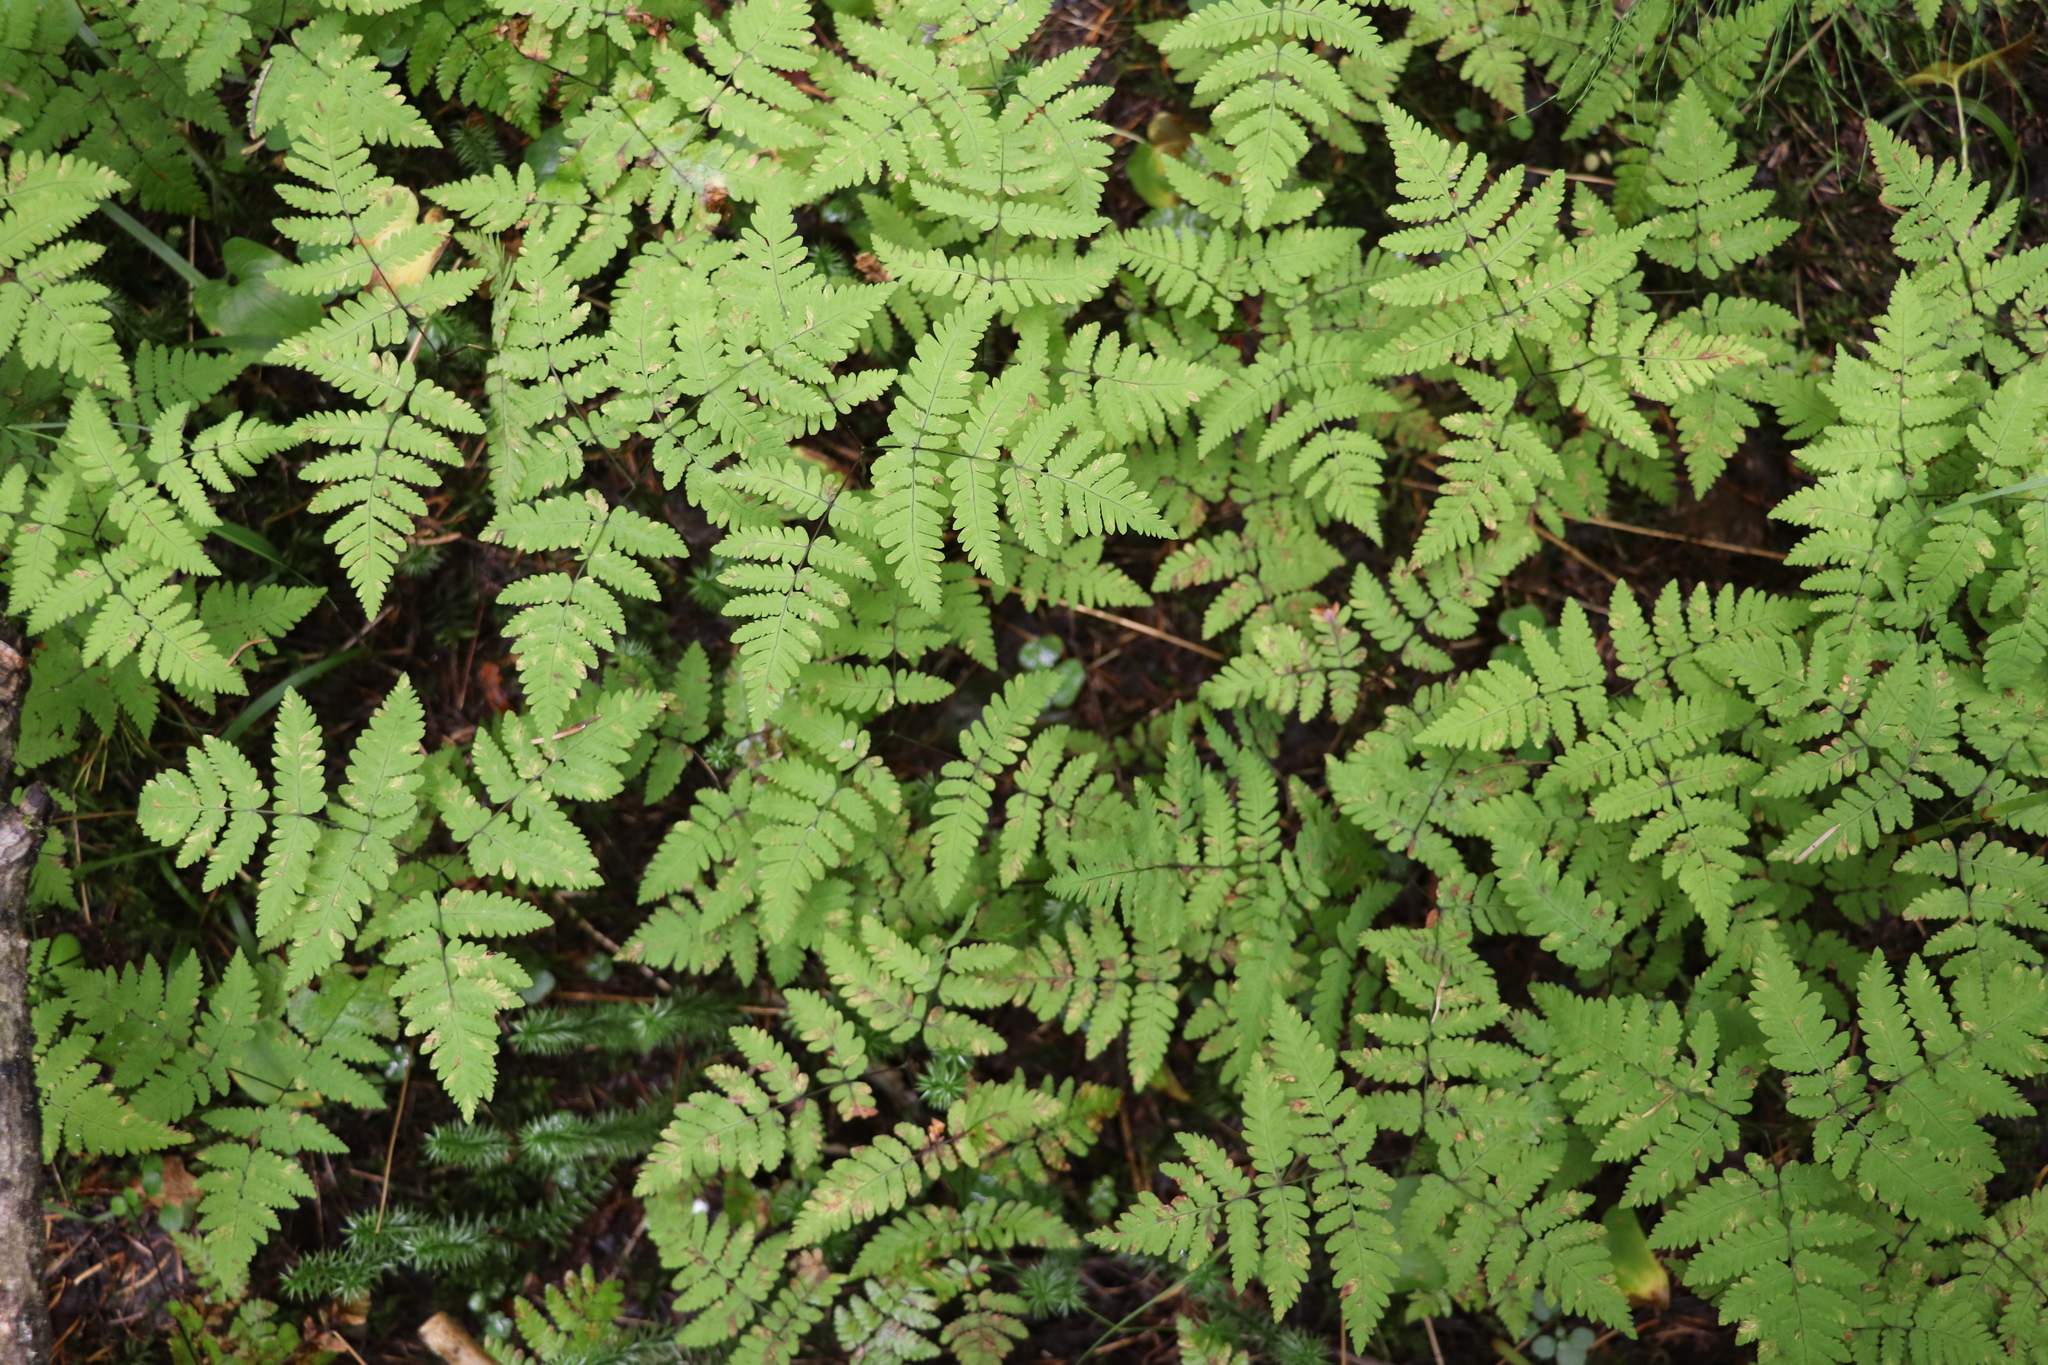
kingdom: Plantae
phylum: Tracheophyta
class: Polypodiopsida
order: Polypodiales
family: Cystopteridaceae
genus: Gymnocarpium
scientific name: Gymnocarpium dryopteris
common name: Oak fern
